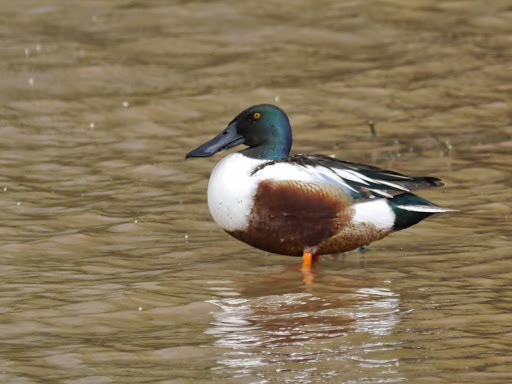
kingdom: Animalia
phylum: Chordata
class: Aves
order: Anseriformes
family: Anatidae
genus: Spatula
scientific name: Spatula clypeata
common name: Northern shoveler
